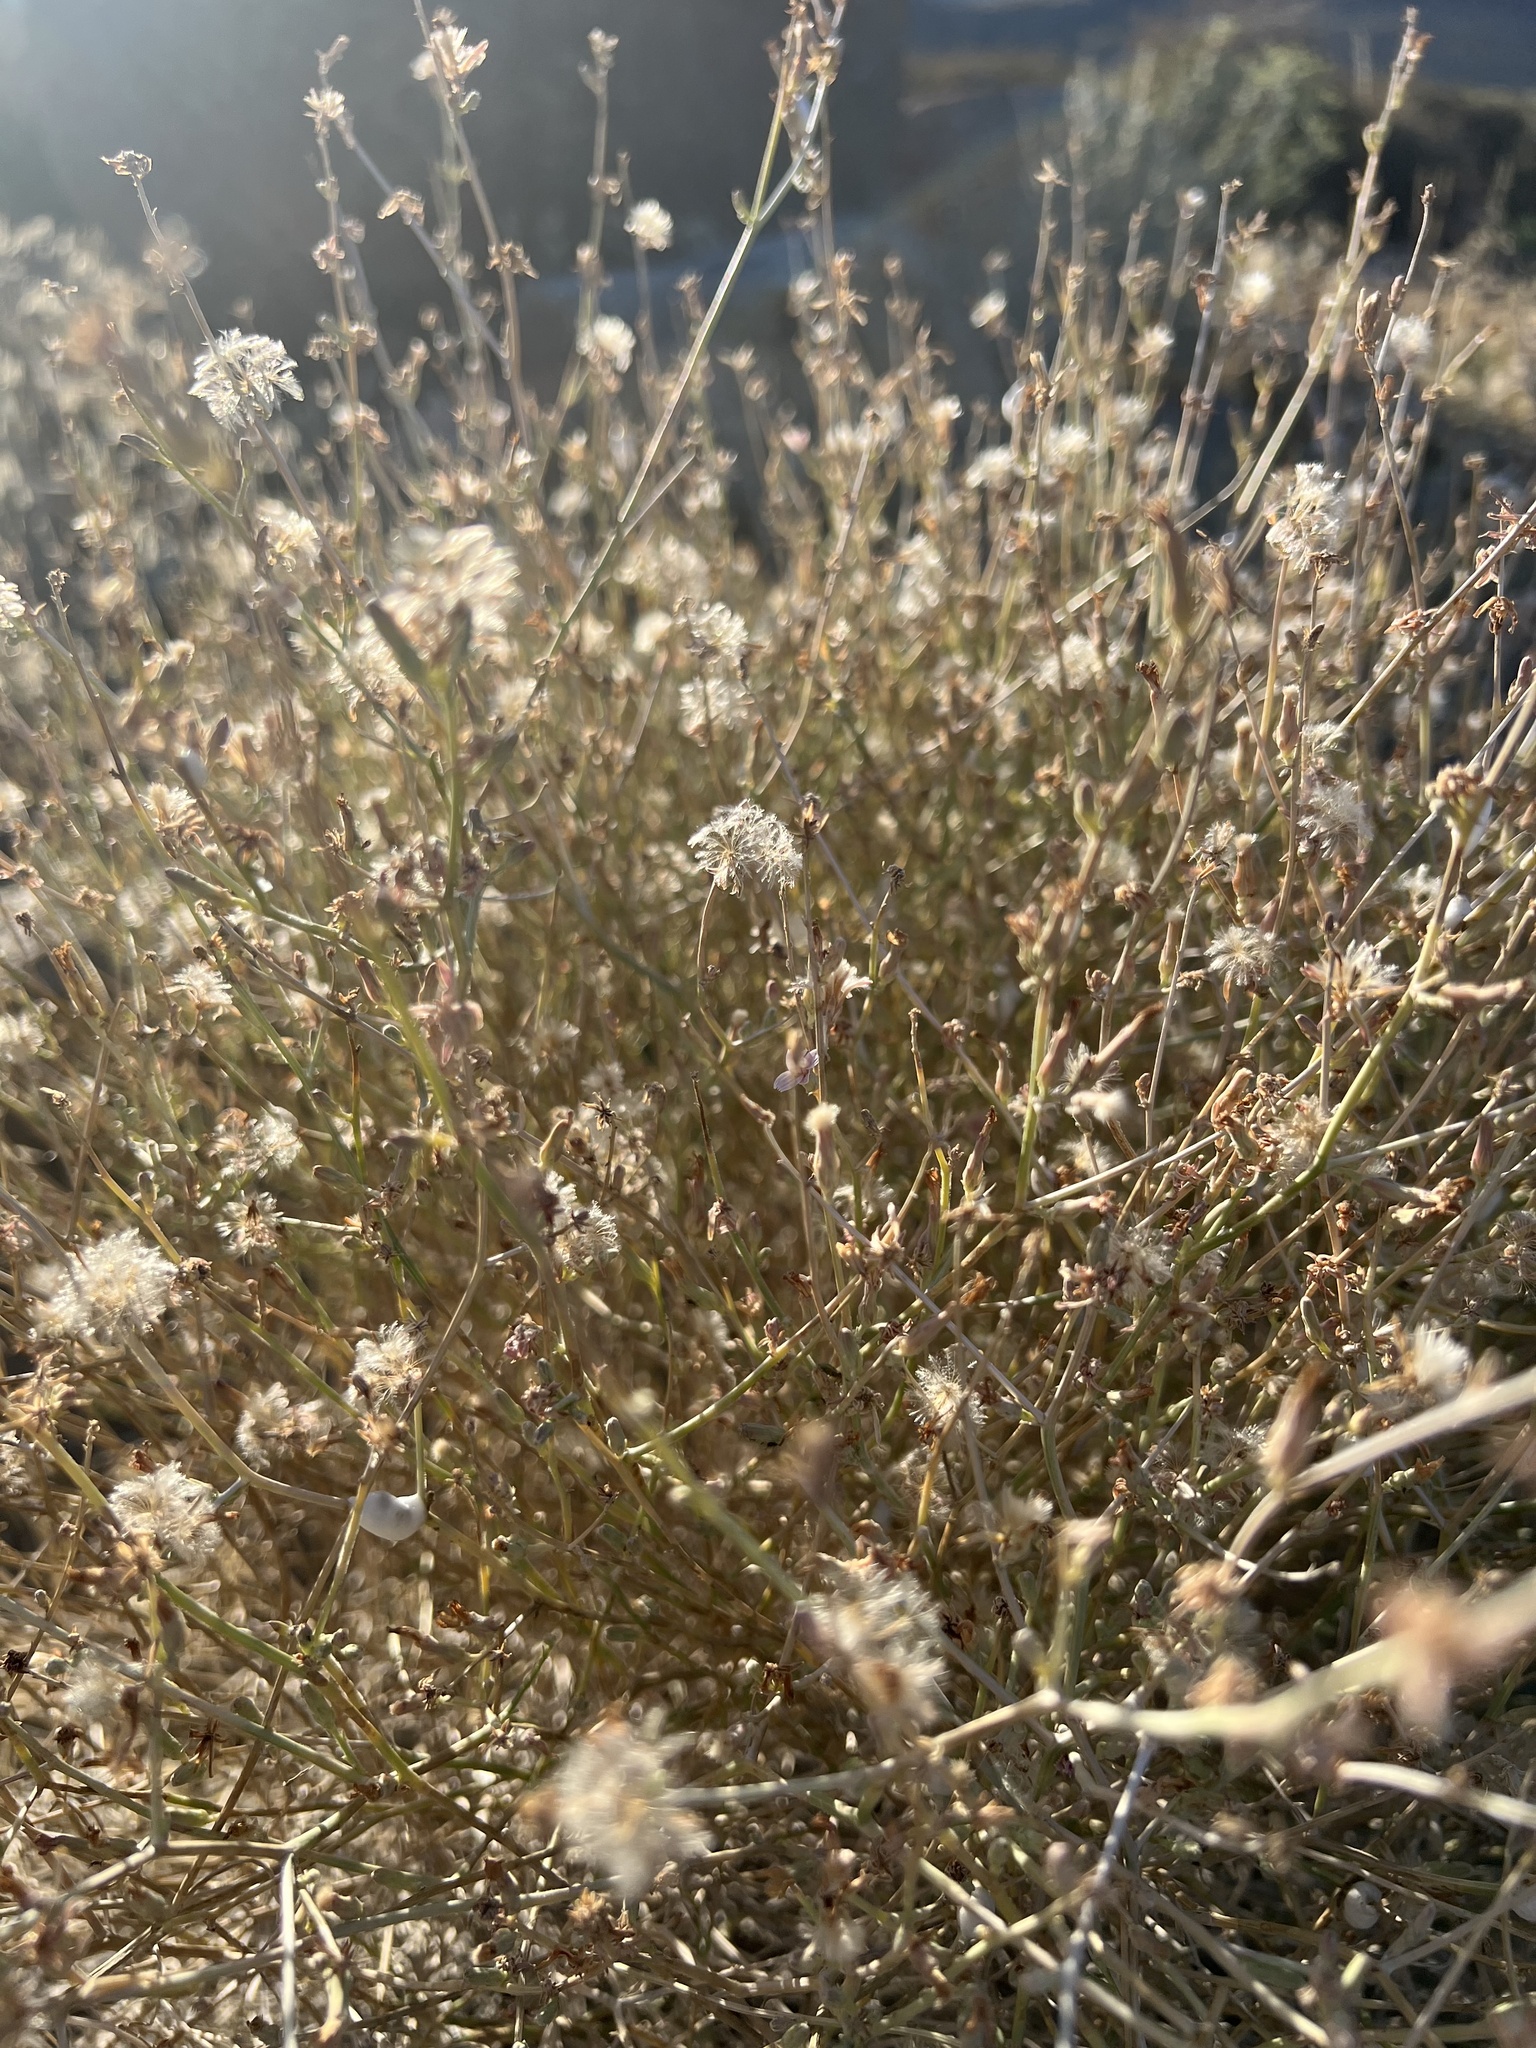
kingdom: Plantae
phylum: Tracheophyta
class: Magnoliopsida
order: Asterales
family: Asteraceae
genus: Stephanomeria
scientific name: Stephanomeria pauciflora
